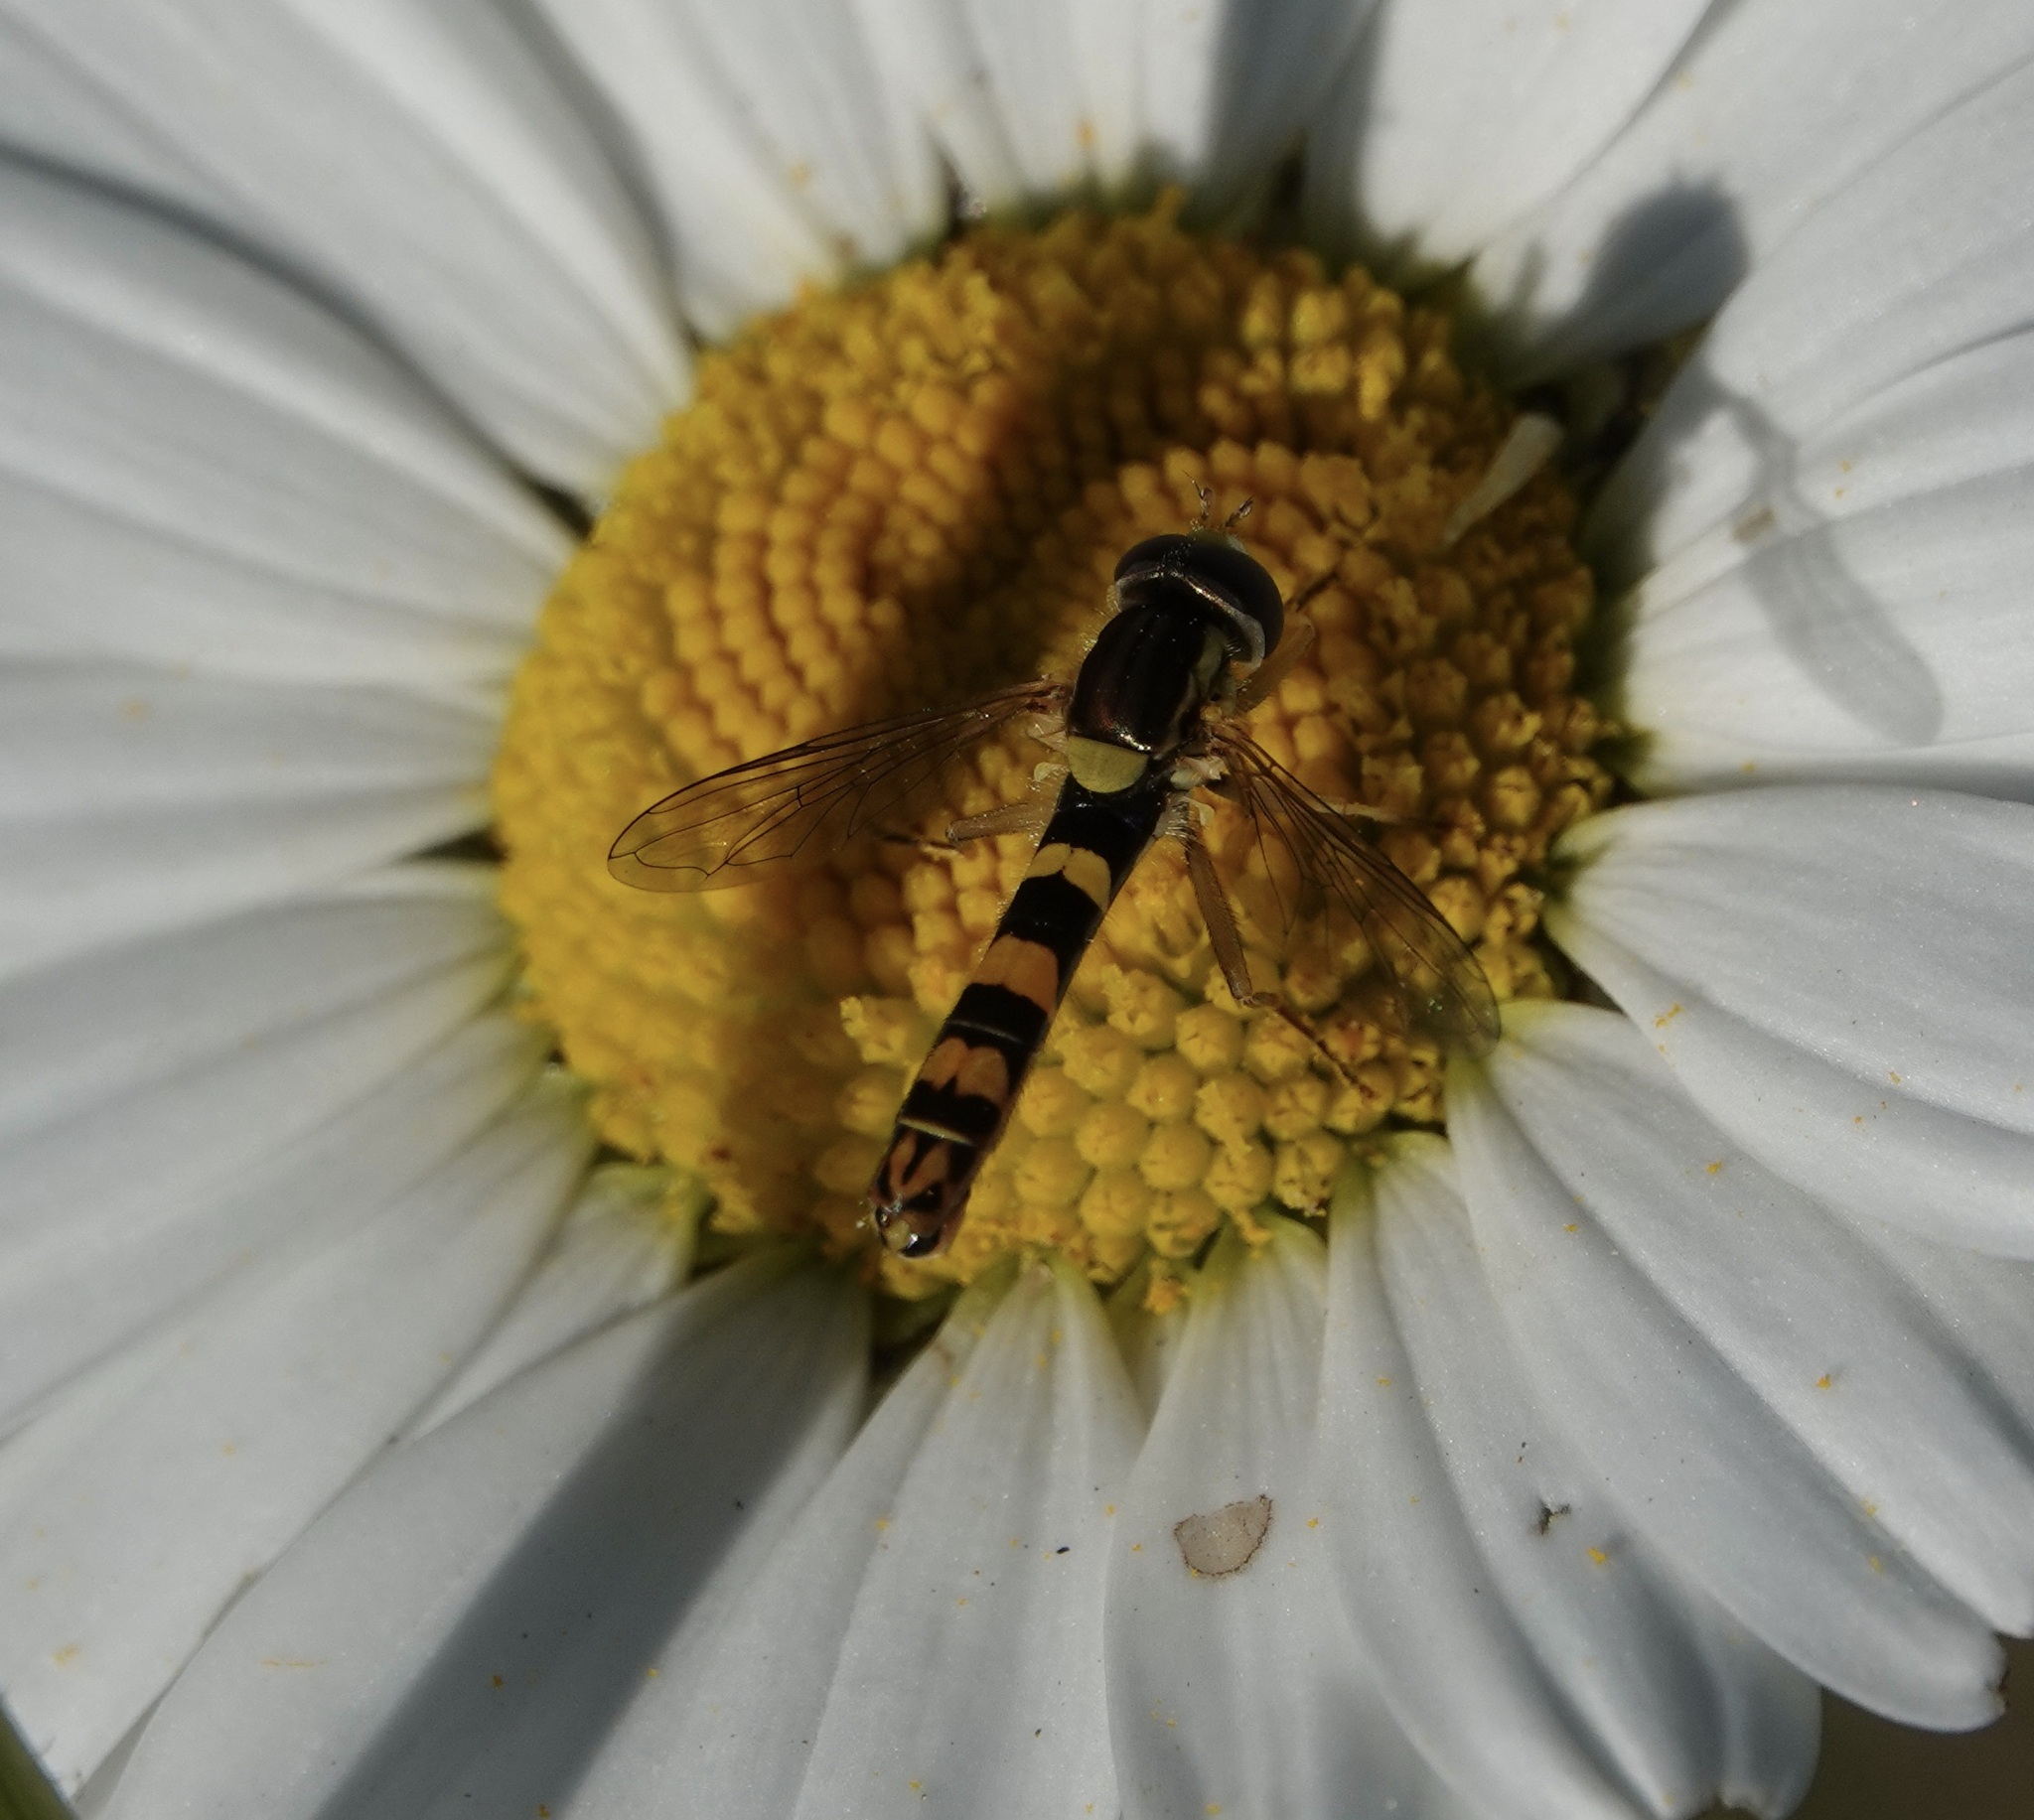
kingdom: Animalia
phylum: Arthropoda
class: Insecta
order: Diptera
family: Syrphidae
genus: Sphaerophoria
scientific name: Sphaerophoria scripta
